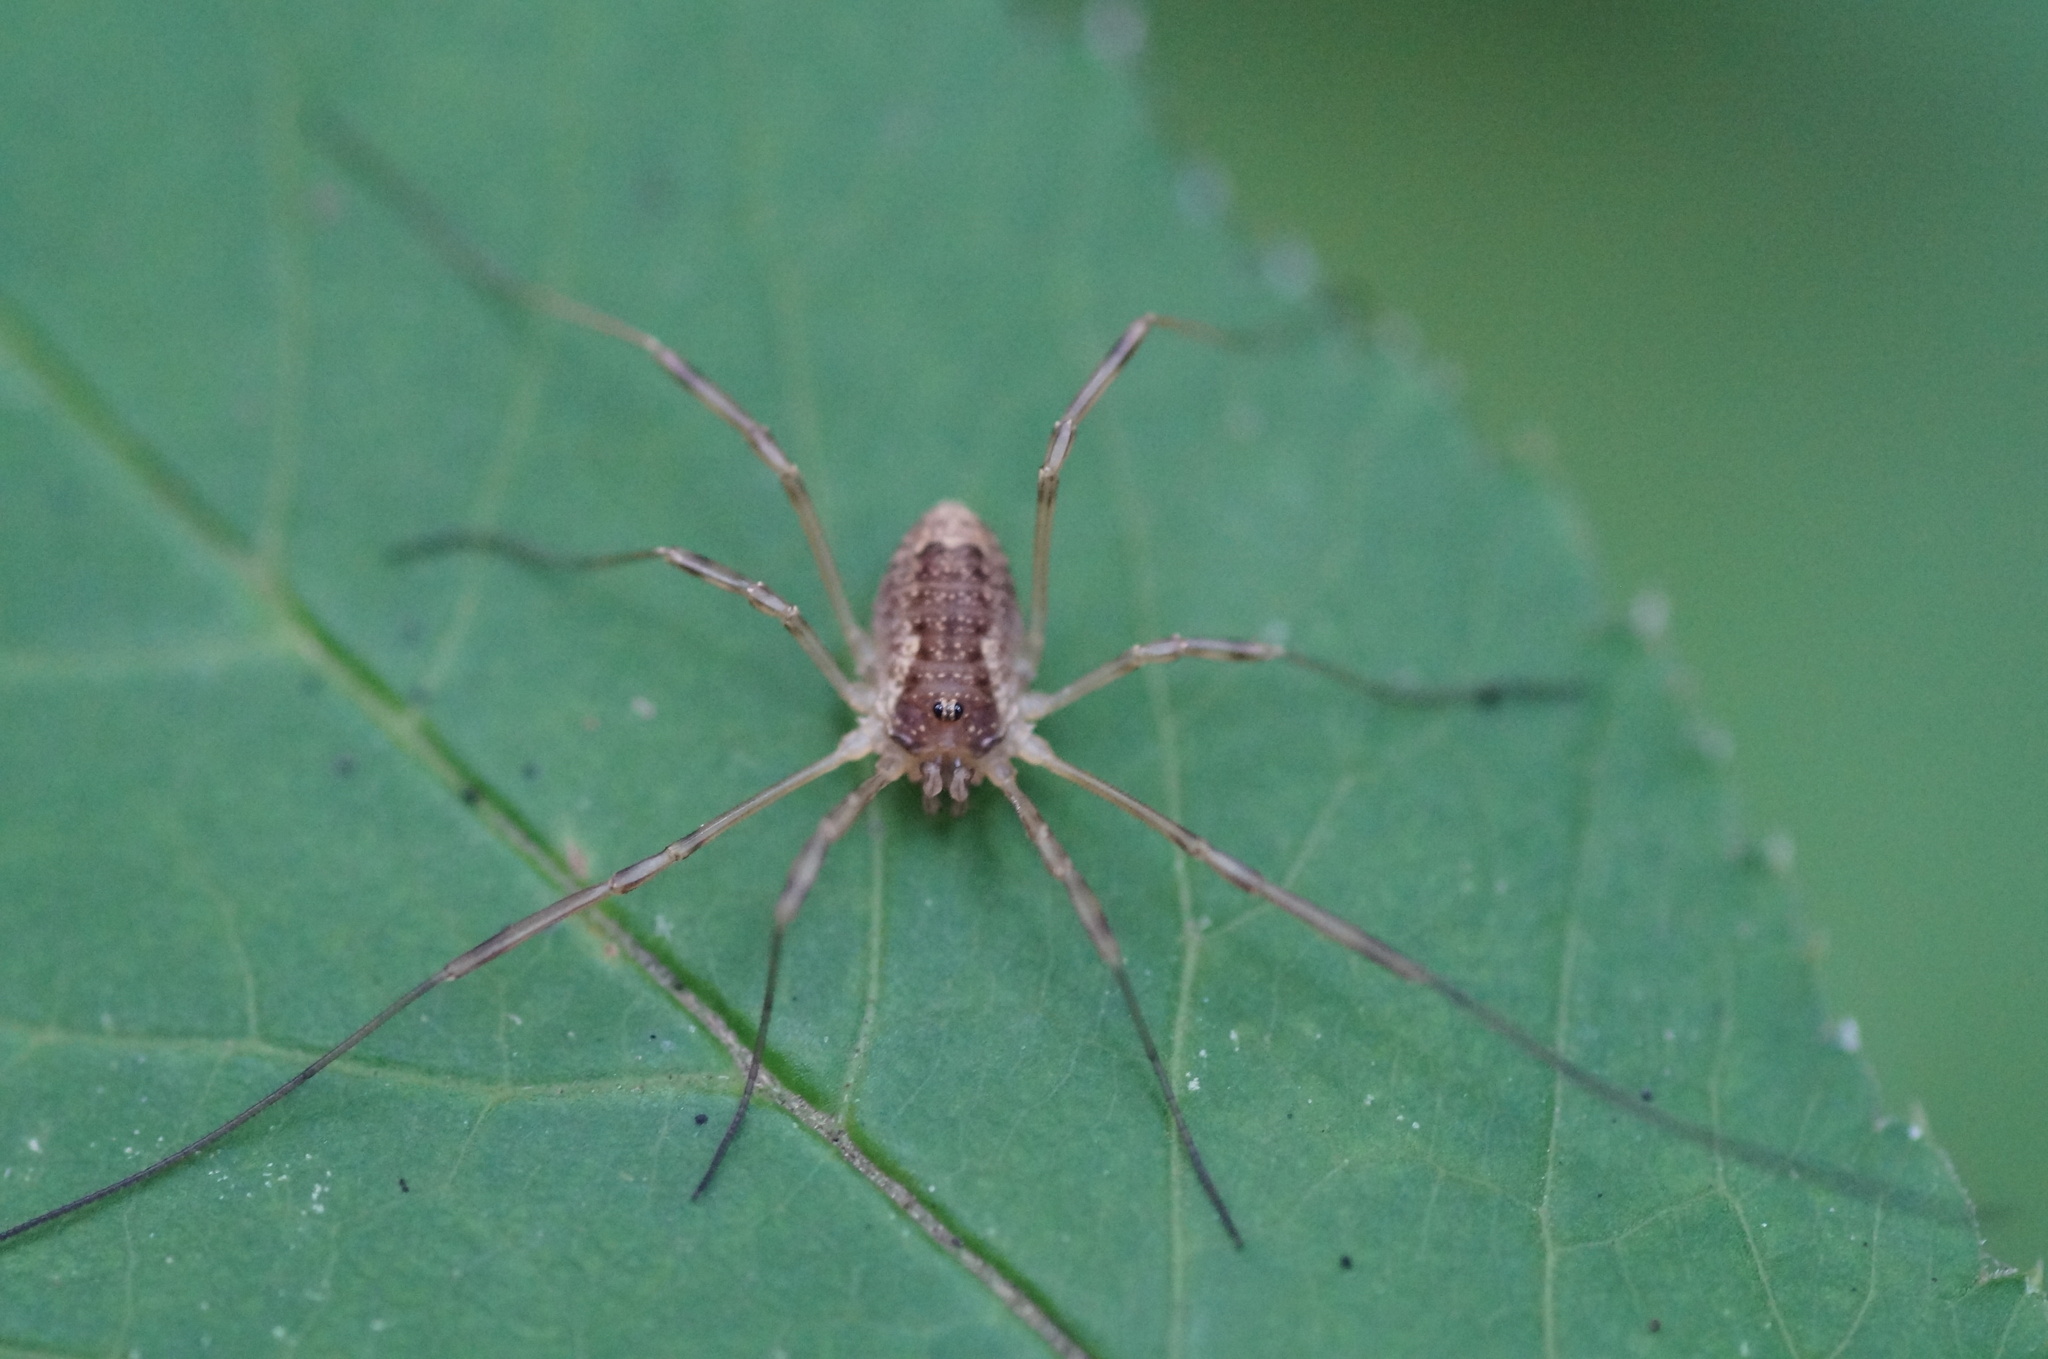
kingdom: Animalia
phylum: Arthropoda
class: Arachnida
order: Opiliones
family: Phalangiidae
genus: Oligolophus
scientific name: Oligolophus tridens
